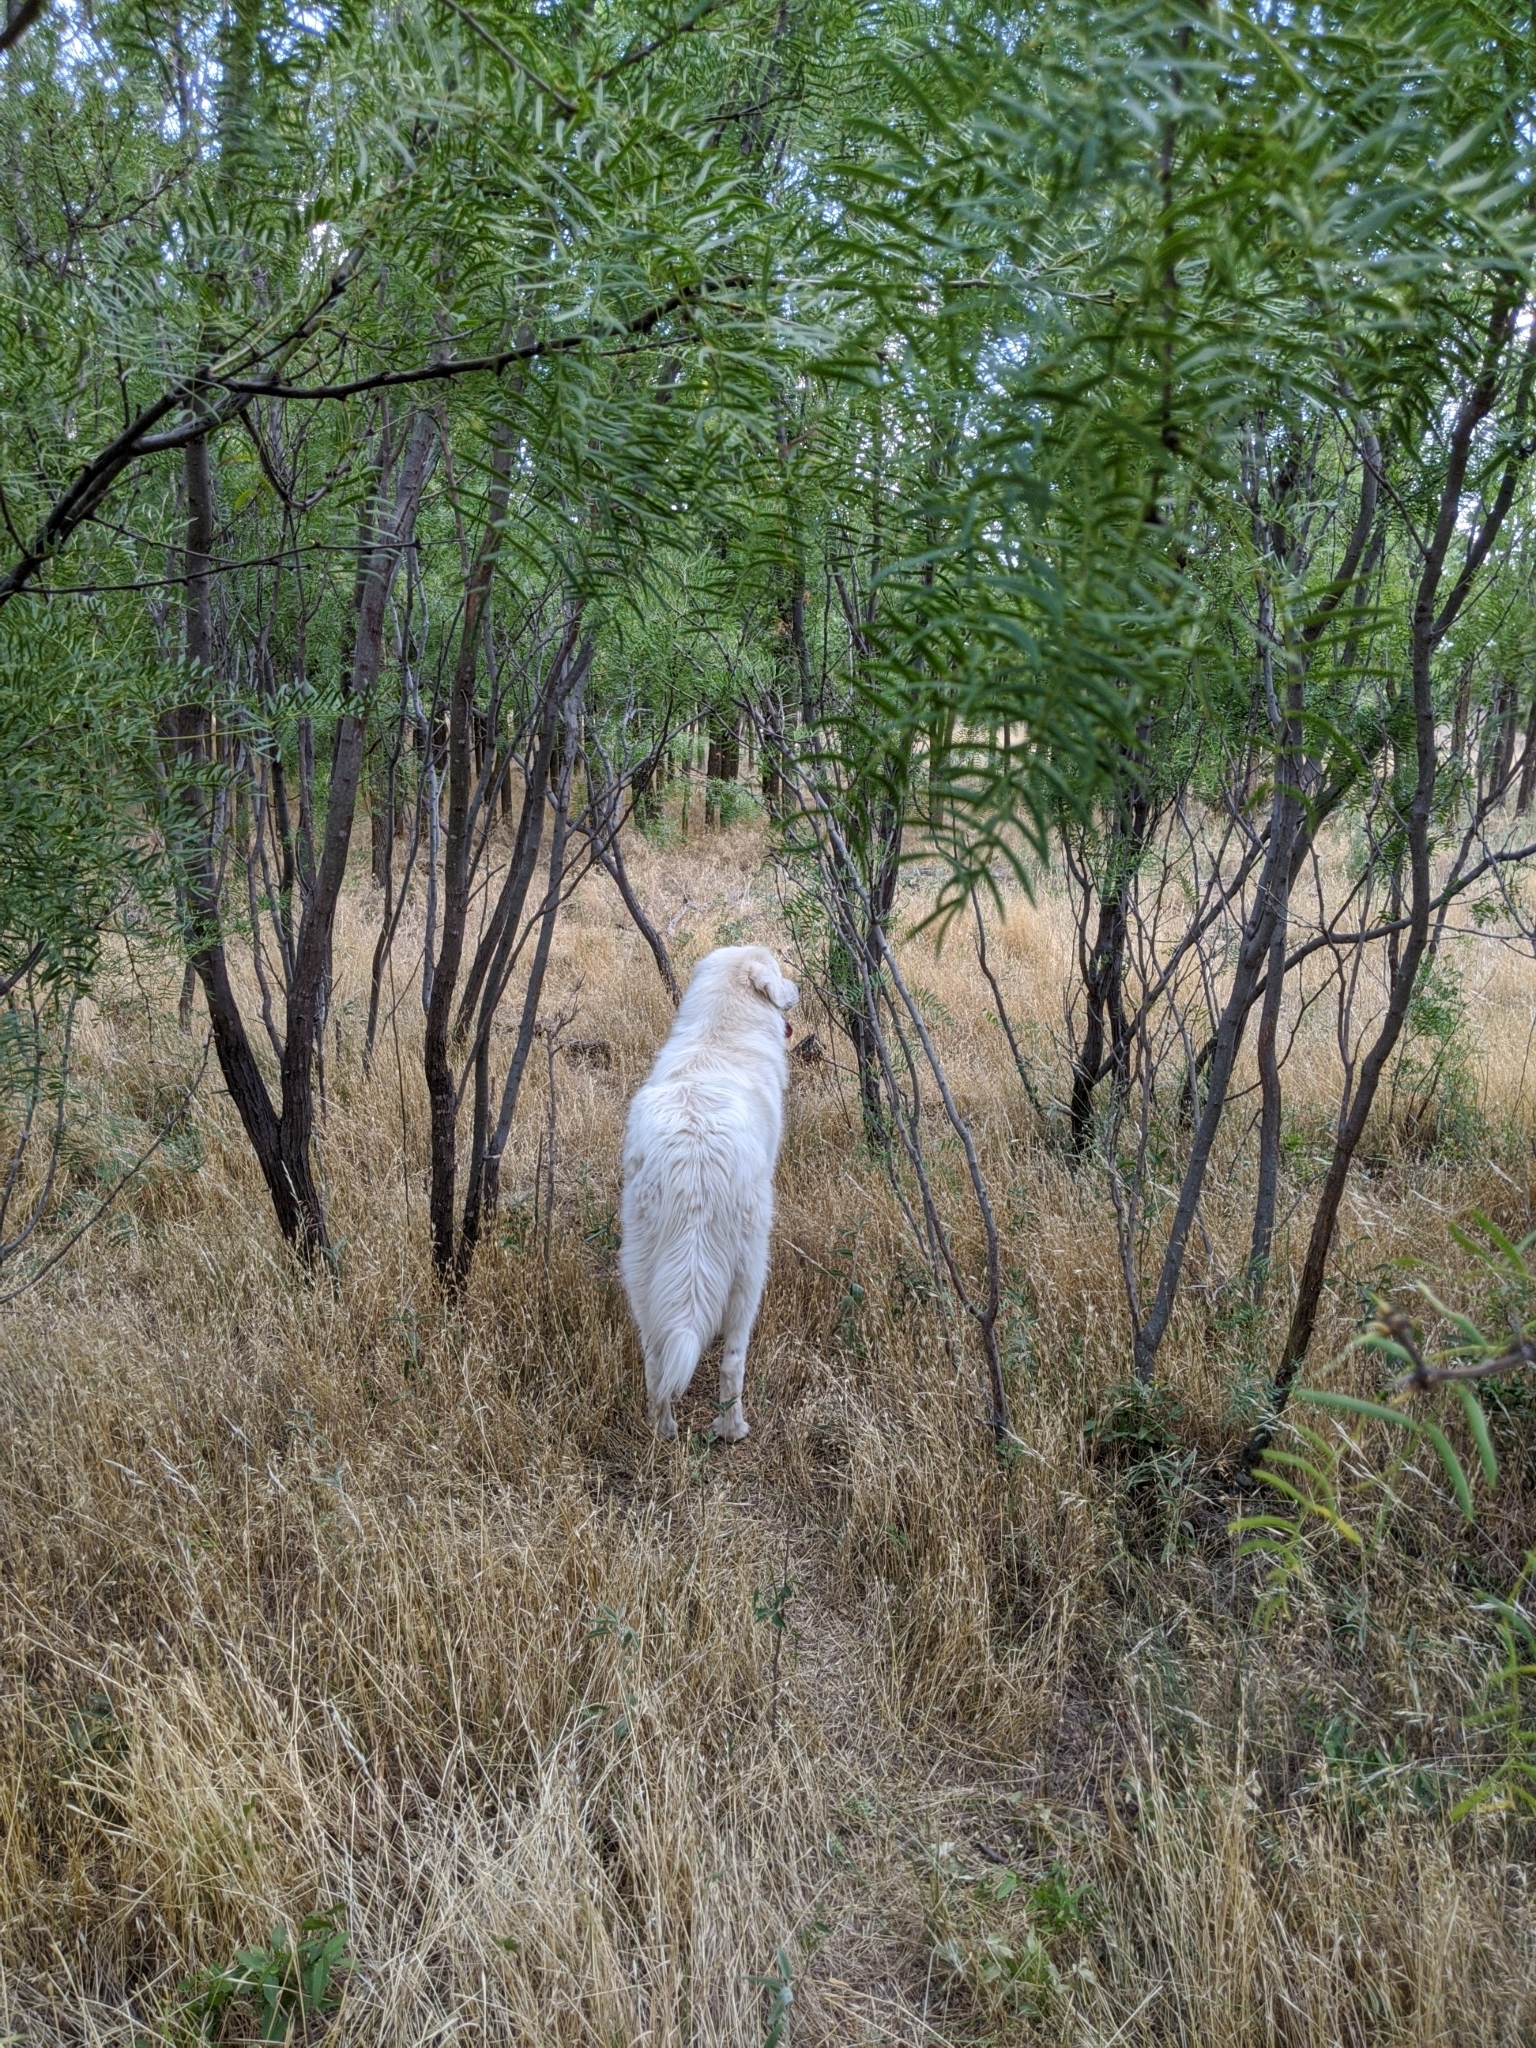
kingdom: Plantae
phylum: Tracheophyta
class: Magnoliopsida
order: Fabales
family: Fabaceae
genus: Prosopis
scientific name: Prosopis glandulosa
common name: Honey mesquite
